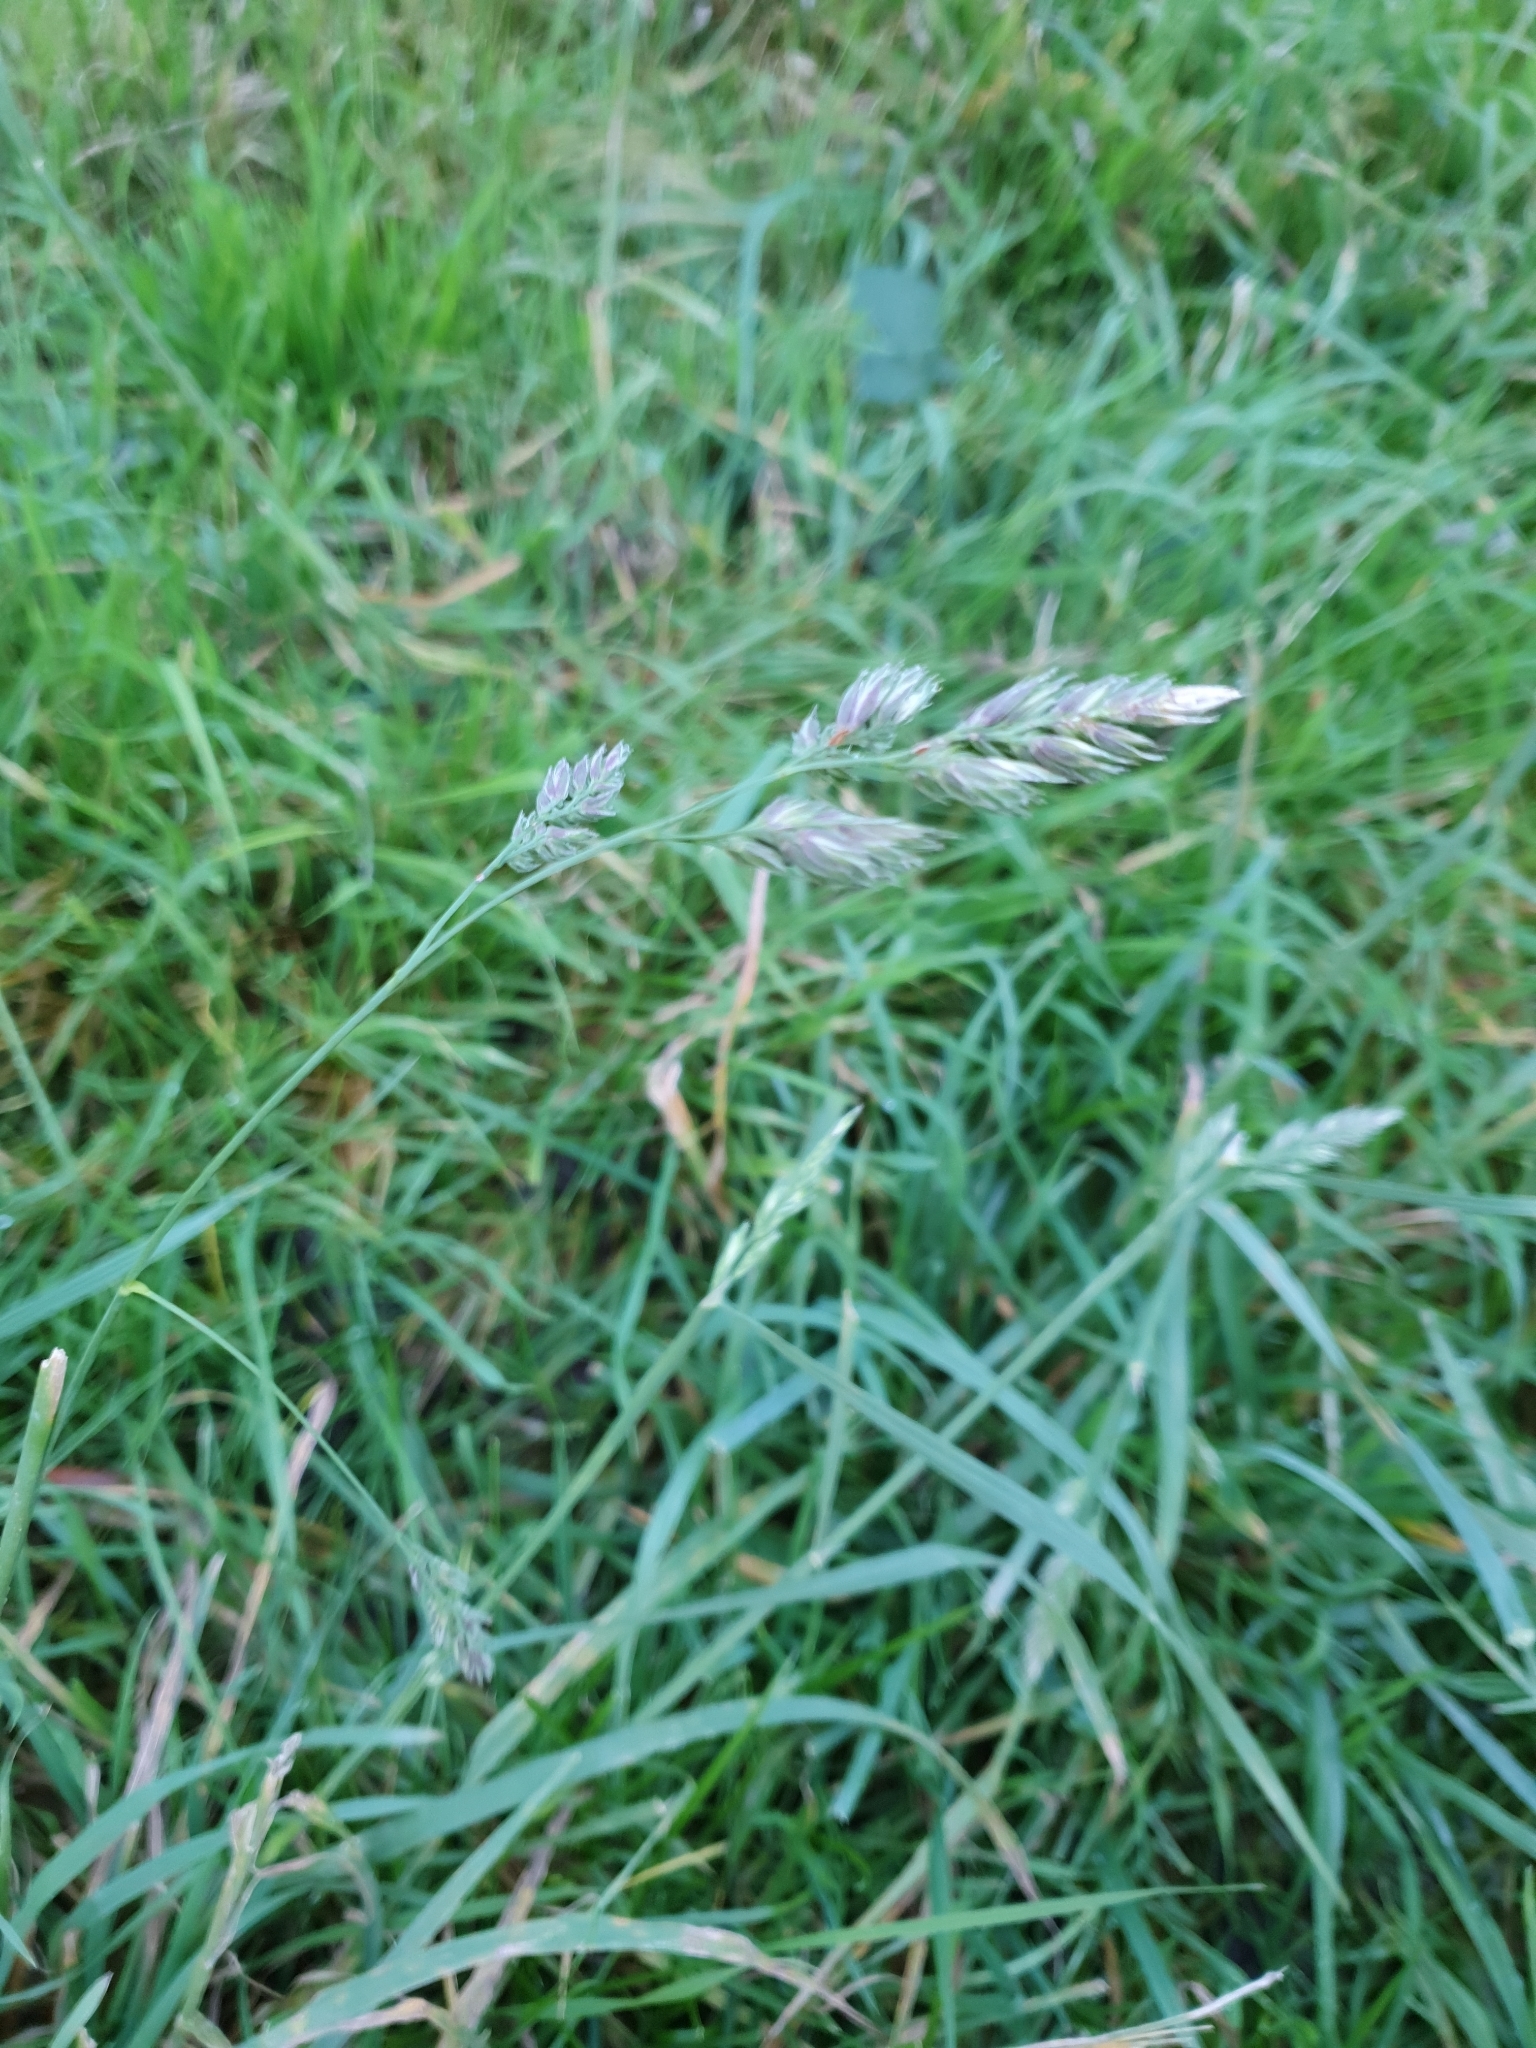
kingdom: Plantae
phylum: Tracheophyta
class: Liliopsida
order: Poales
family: Poaceae
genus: Dactylis
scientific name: Dactylis glomerata
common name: Orchardgrass
